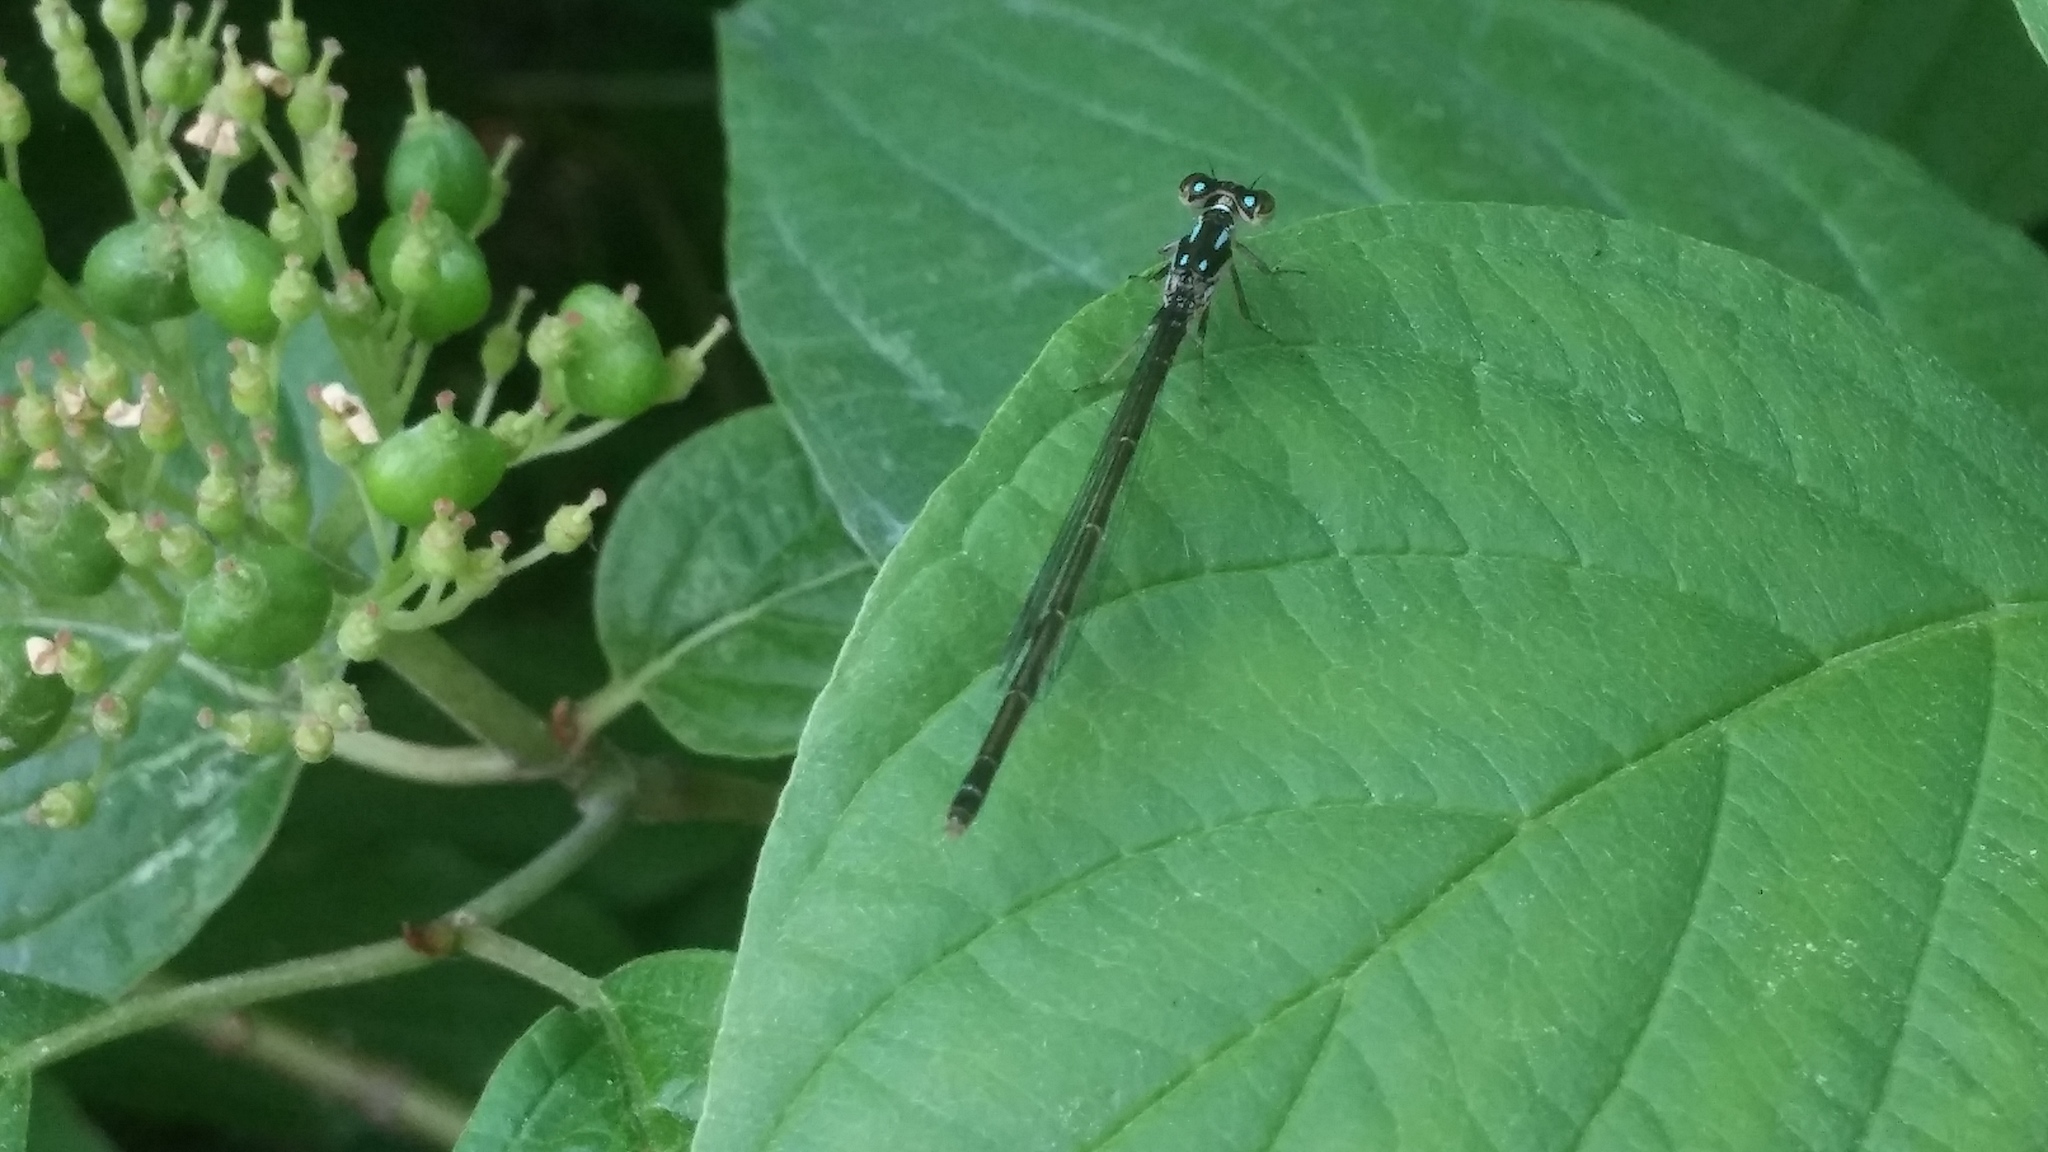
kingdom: Animalia
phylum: Arthropoda
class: Insecta
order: Odonata
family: Coenagrionidae
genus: Ischnura
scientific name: Ischnura posita
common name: Fragile forktail
